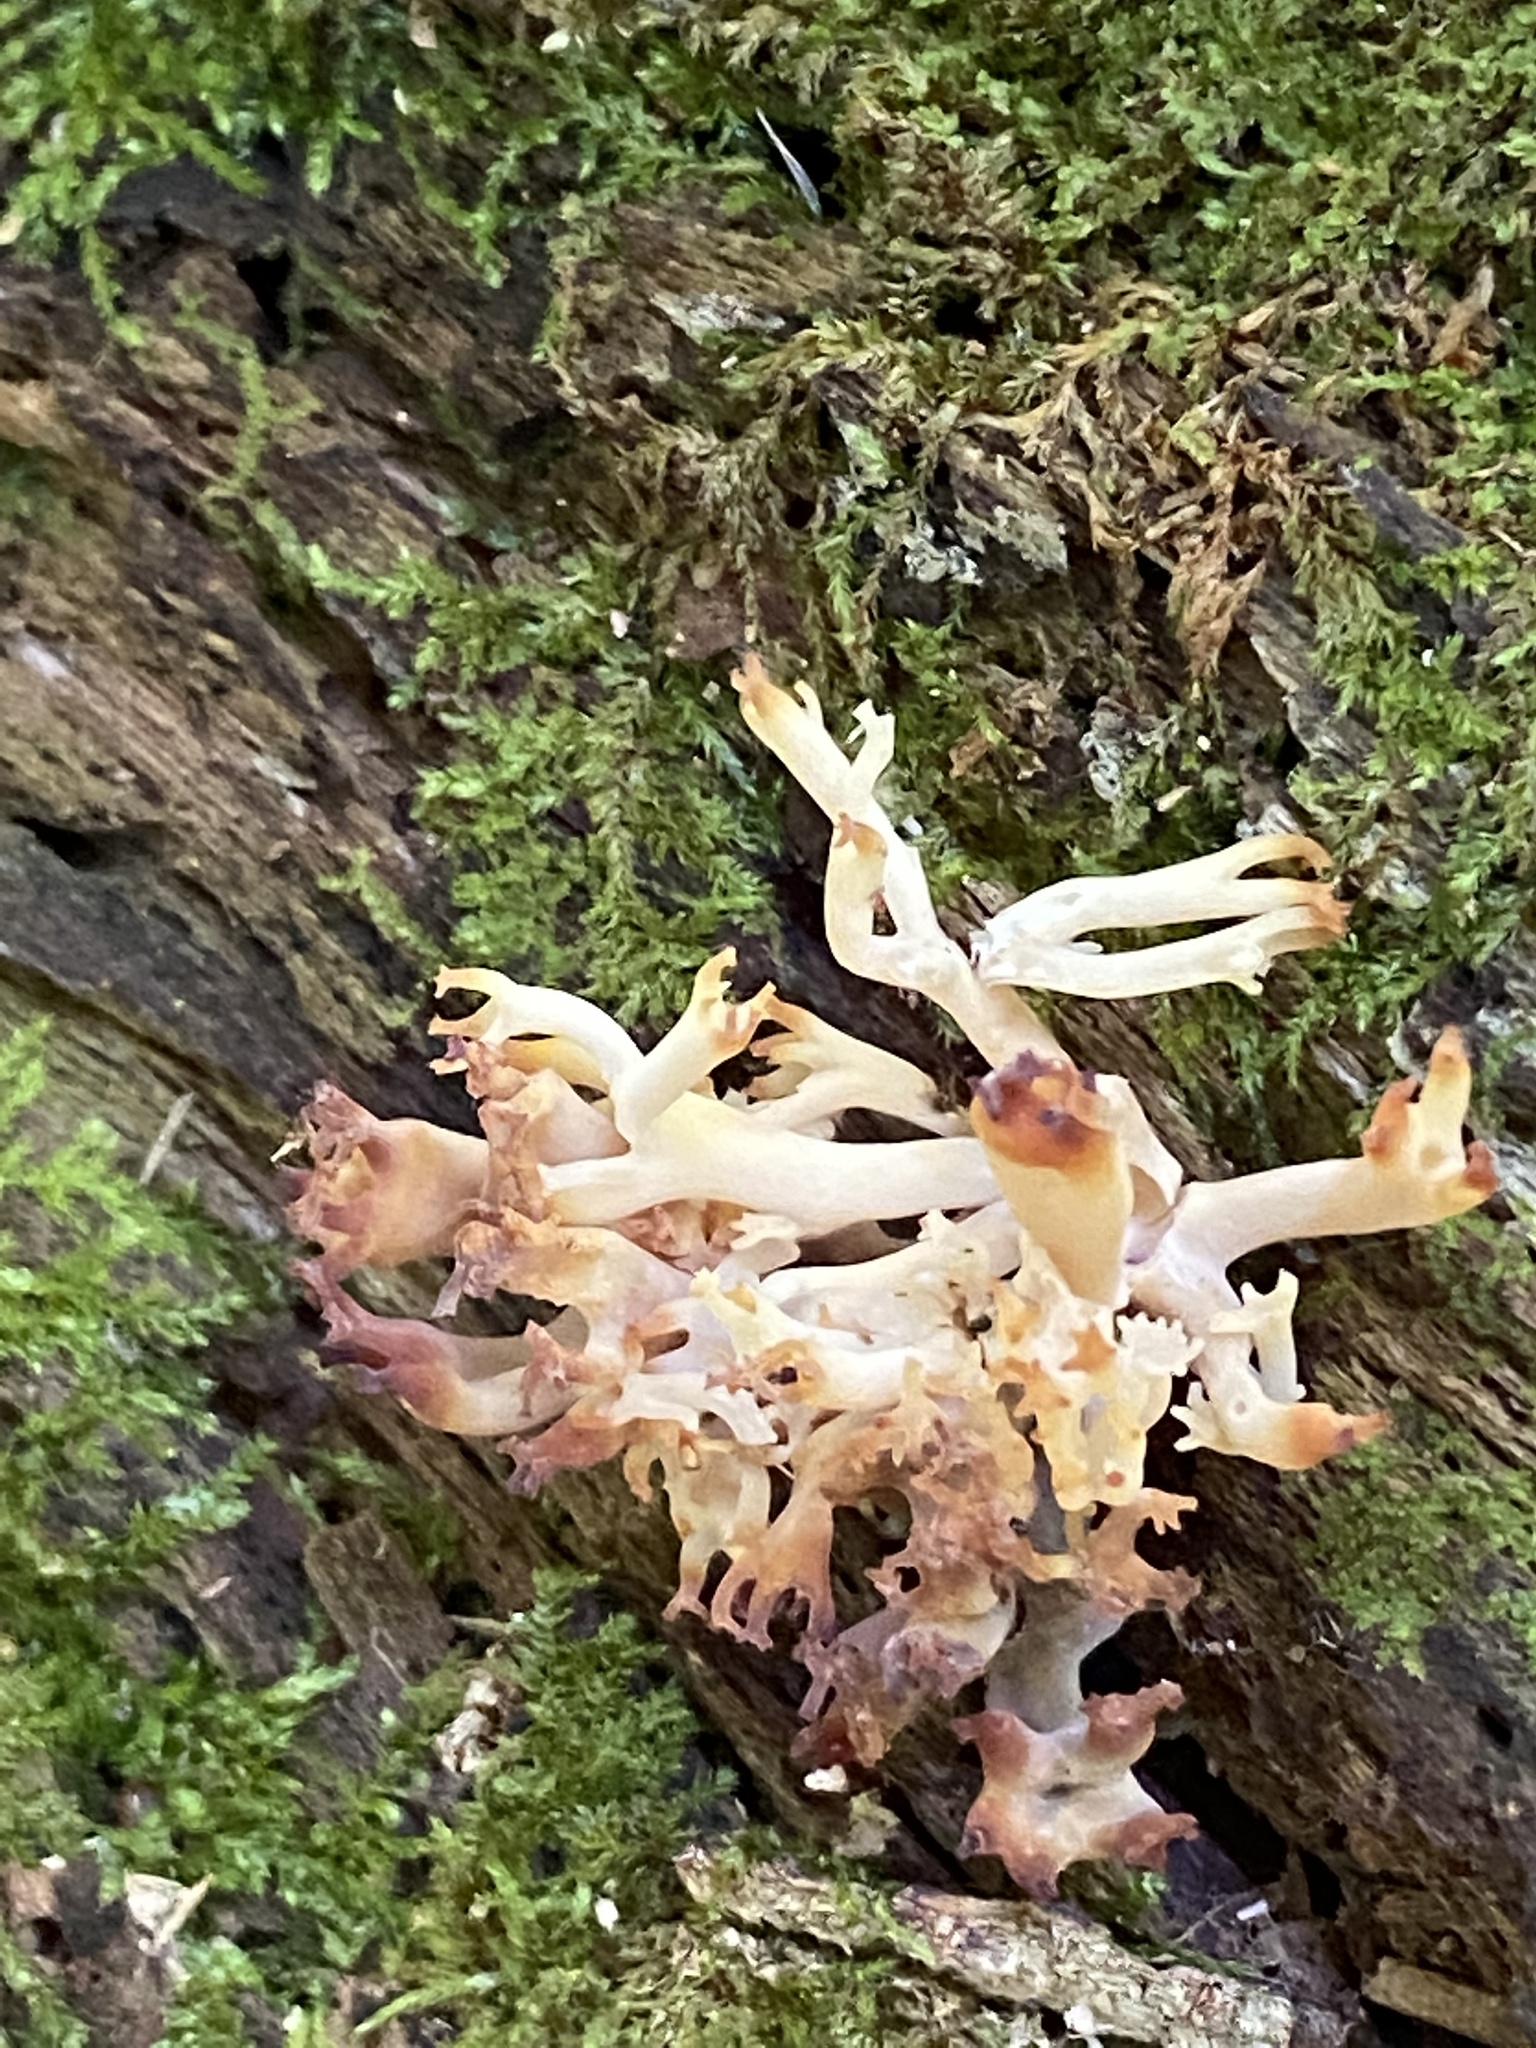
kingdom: Fungi
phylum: Basidiomycota
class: Agaricomycetes
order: Russulales
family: Auriscalpiaceae
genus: Artomyces
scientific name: Artomyces pyxidatus
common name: Crown-tipped coral fungus
